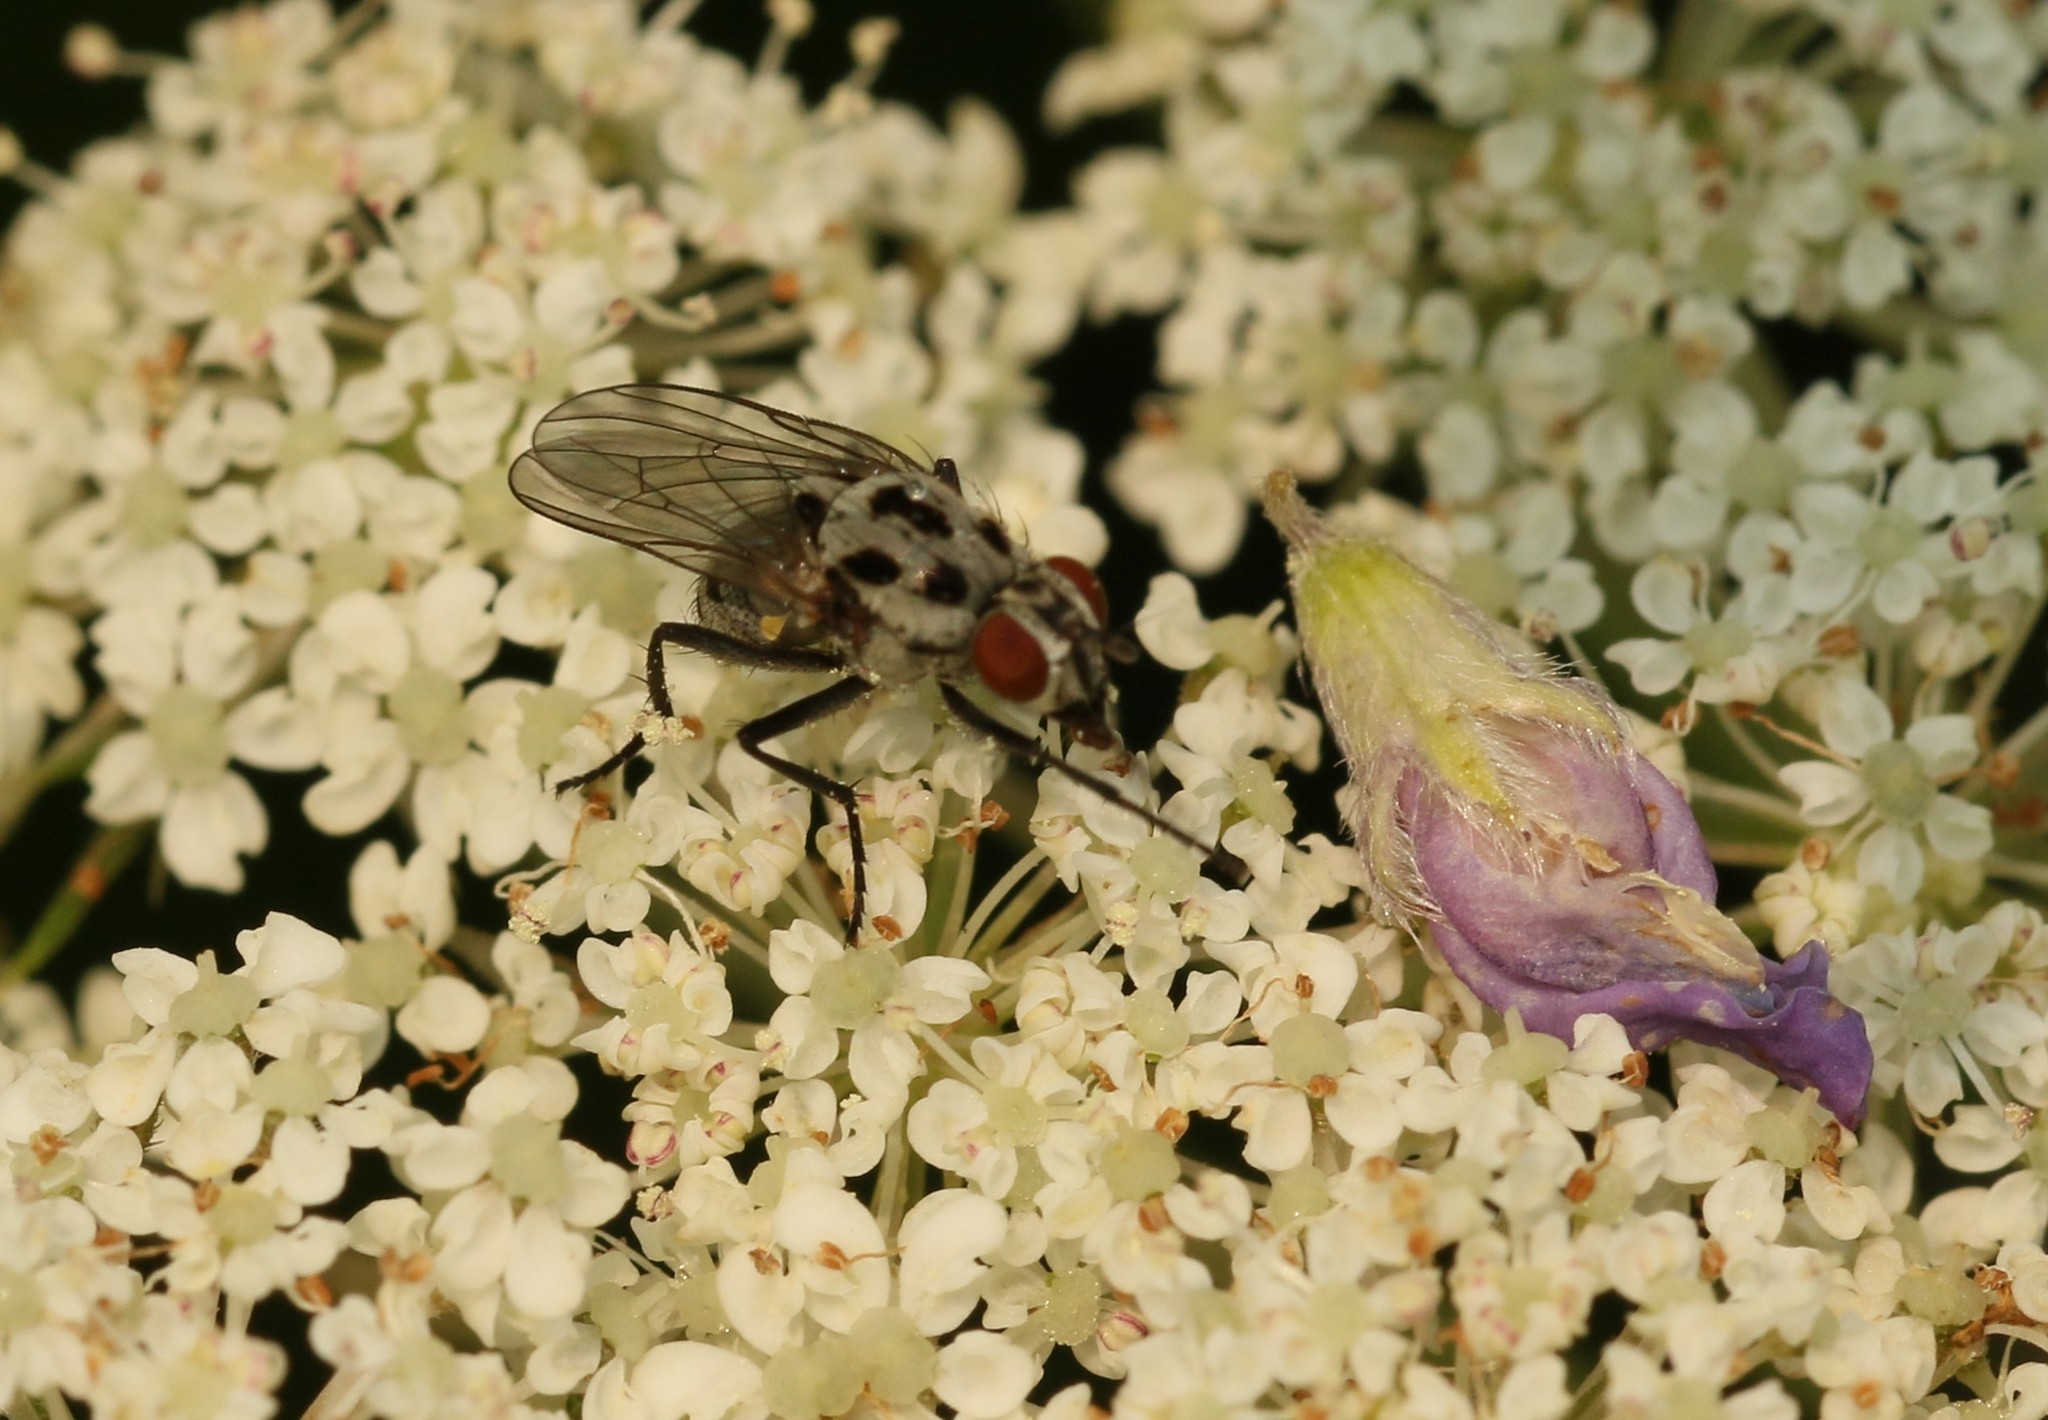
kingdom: Animalia
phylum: Arthropoda
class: Insecta
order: Diptera
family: Anthomyiidae
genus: Anthomyia
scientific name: Anthomyia pluvialis
